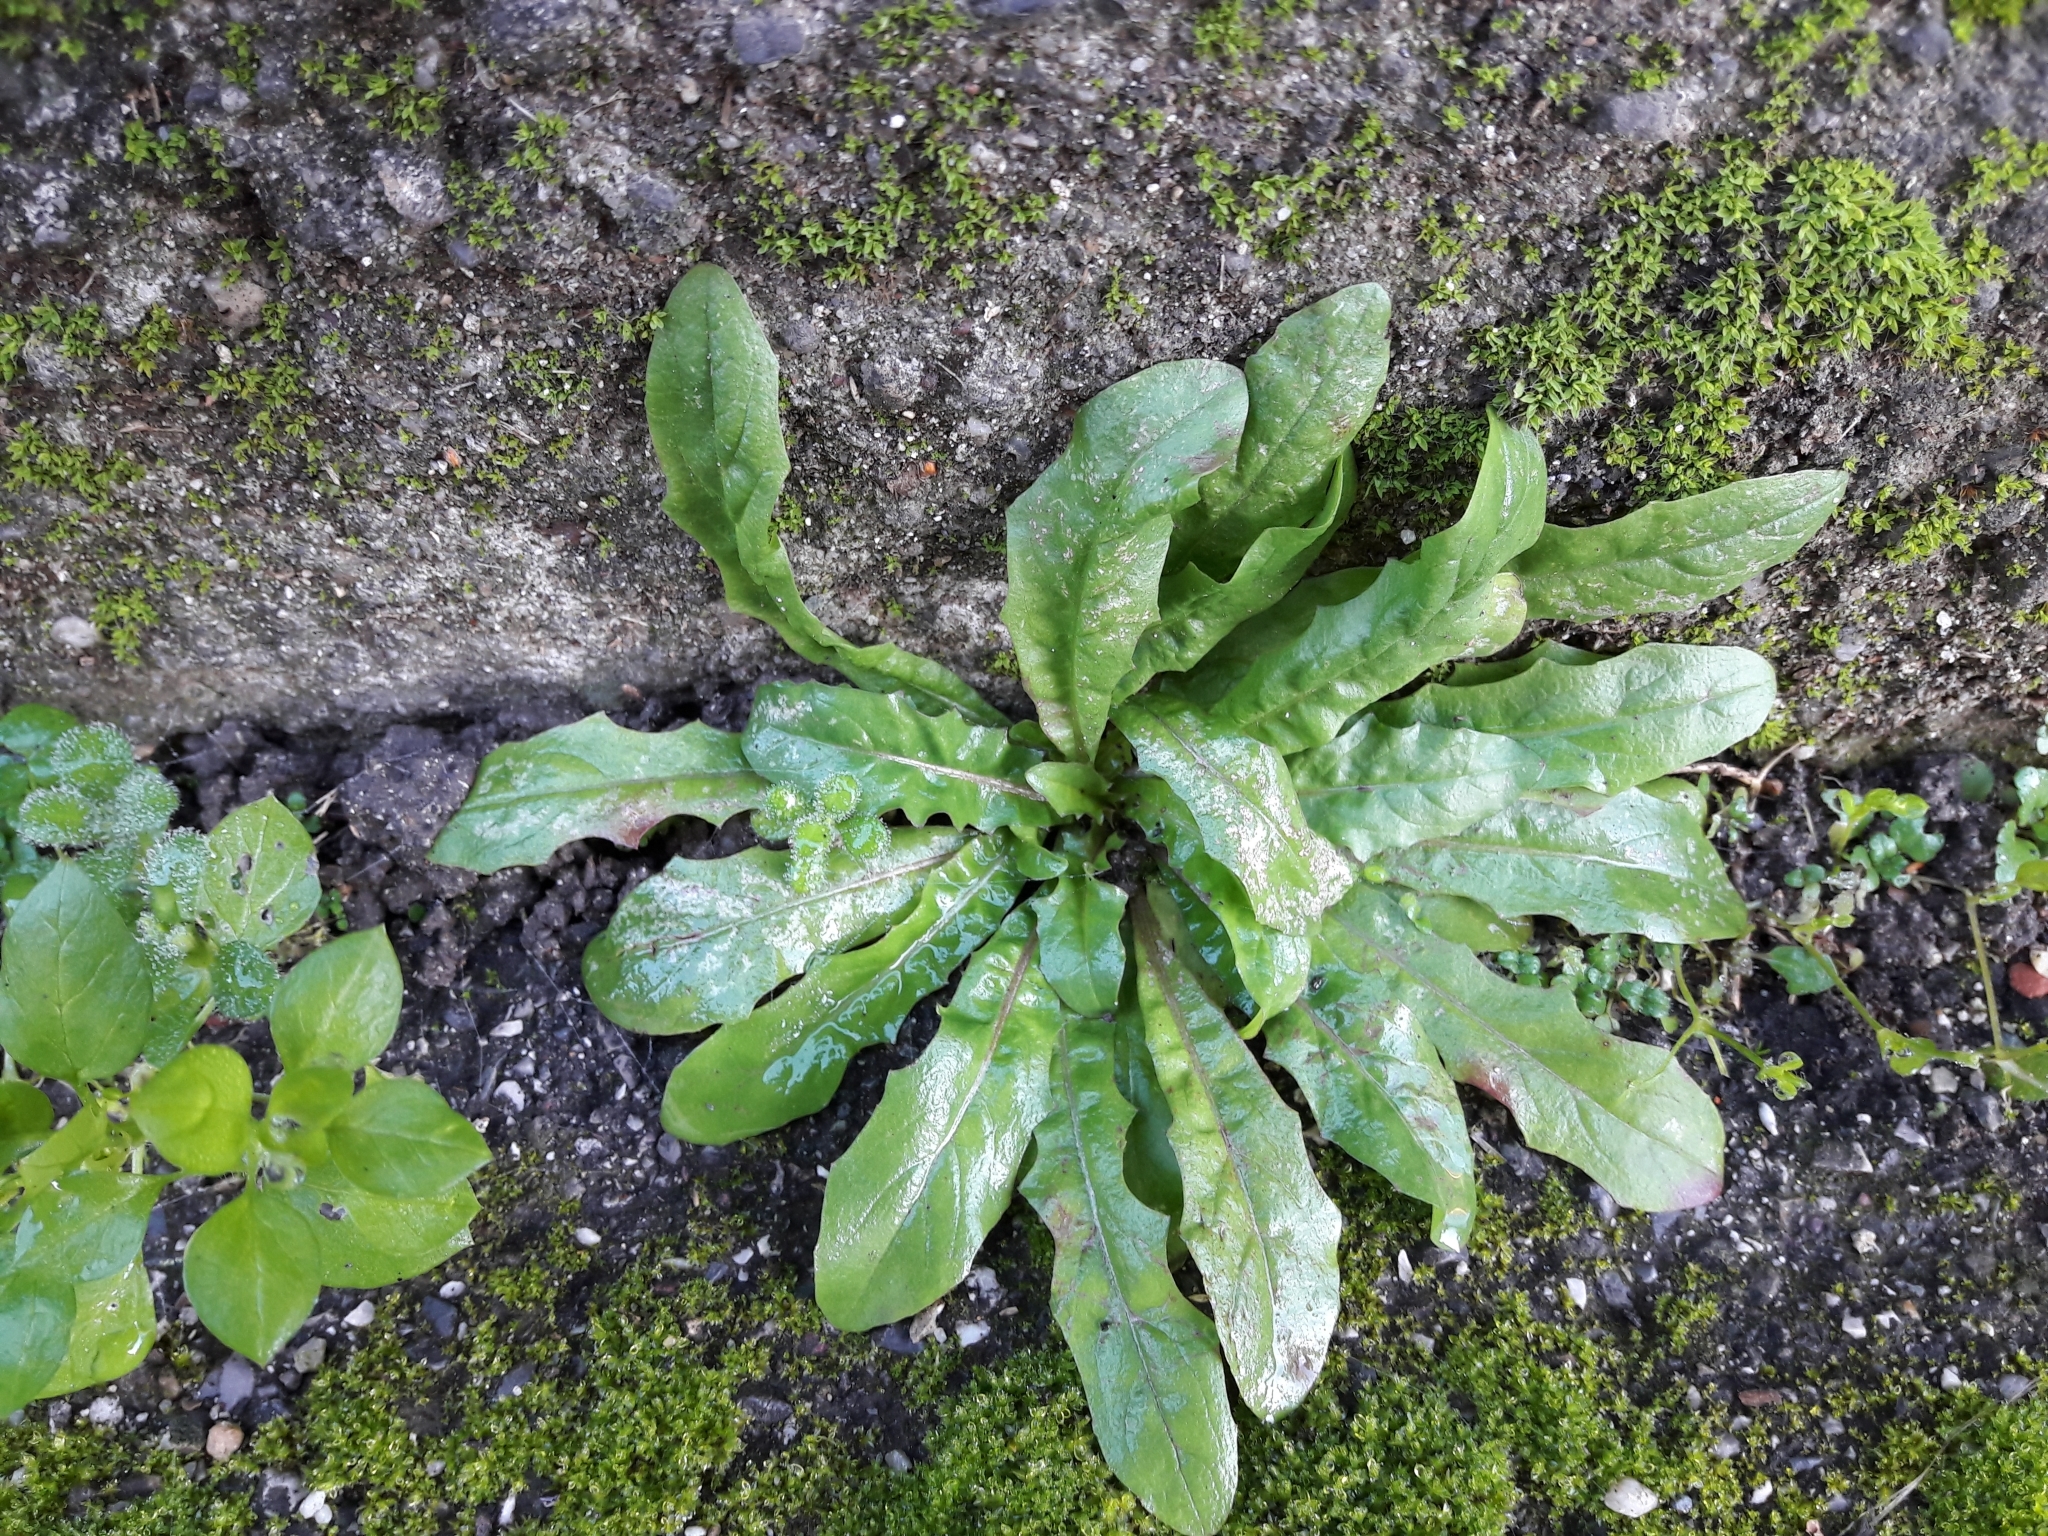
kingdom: Plantae
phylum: Tracheophyta
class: Magnoliopsida
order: Asterales
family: Asteraceae
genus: Taraxacum
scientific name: Taraxacum officinale
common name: Common dandelion
